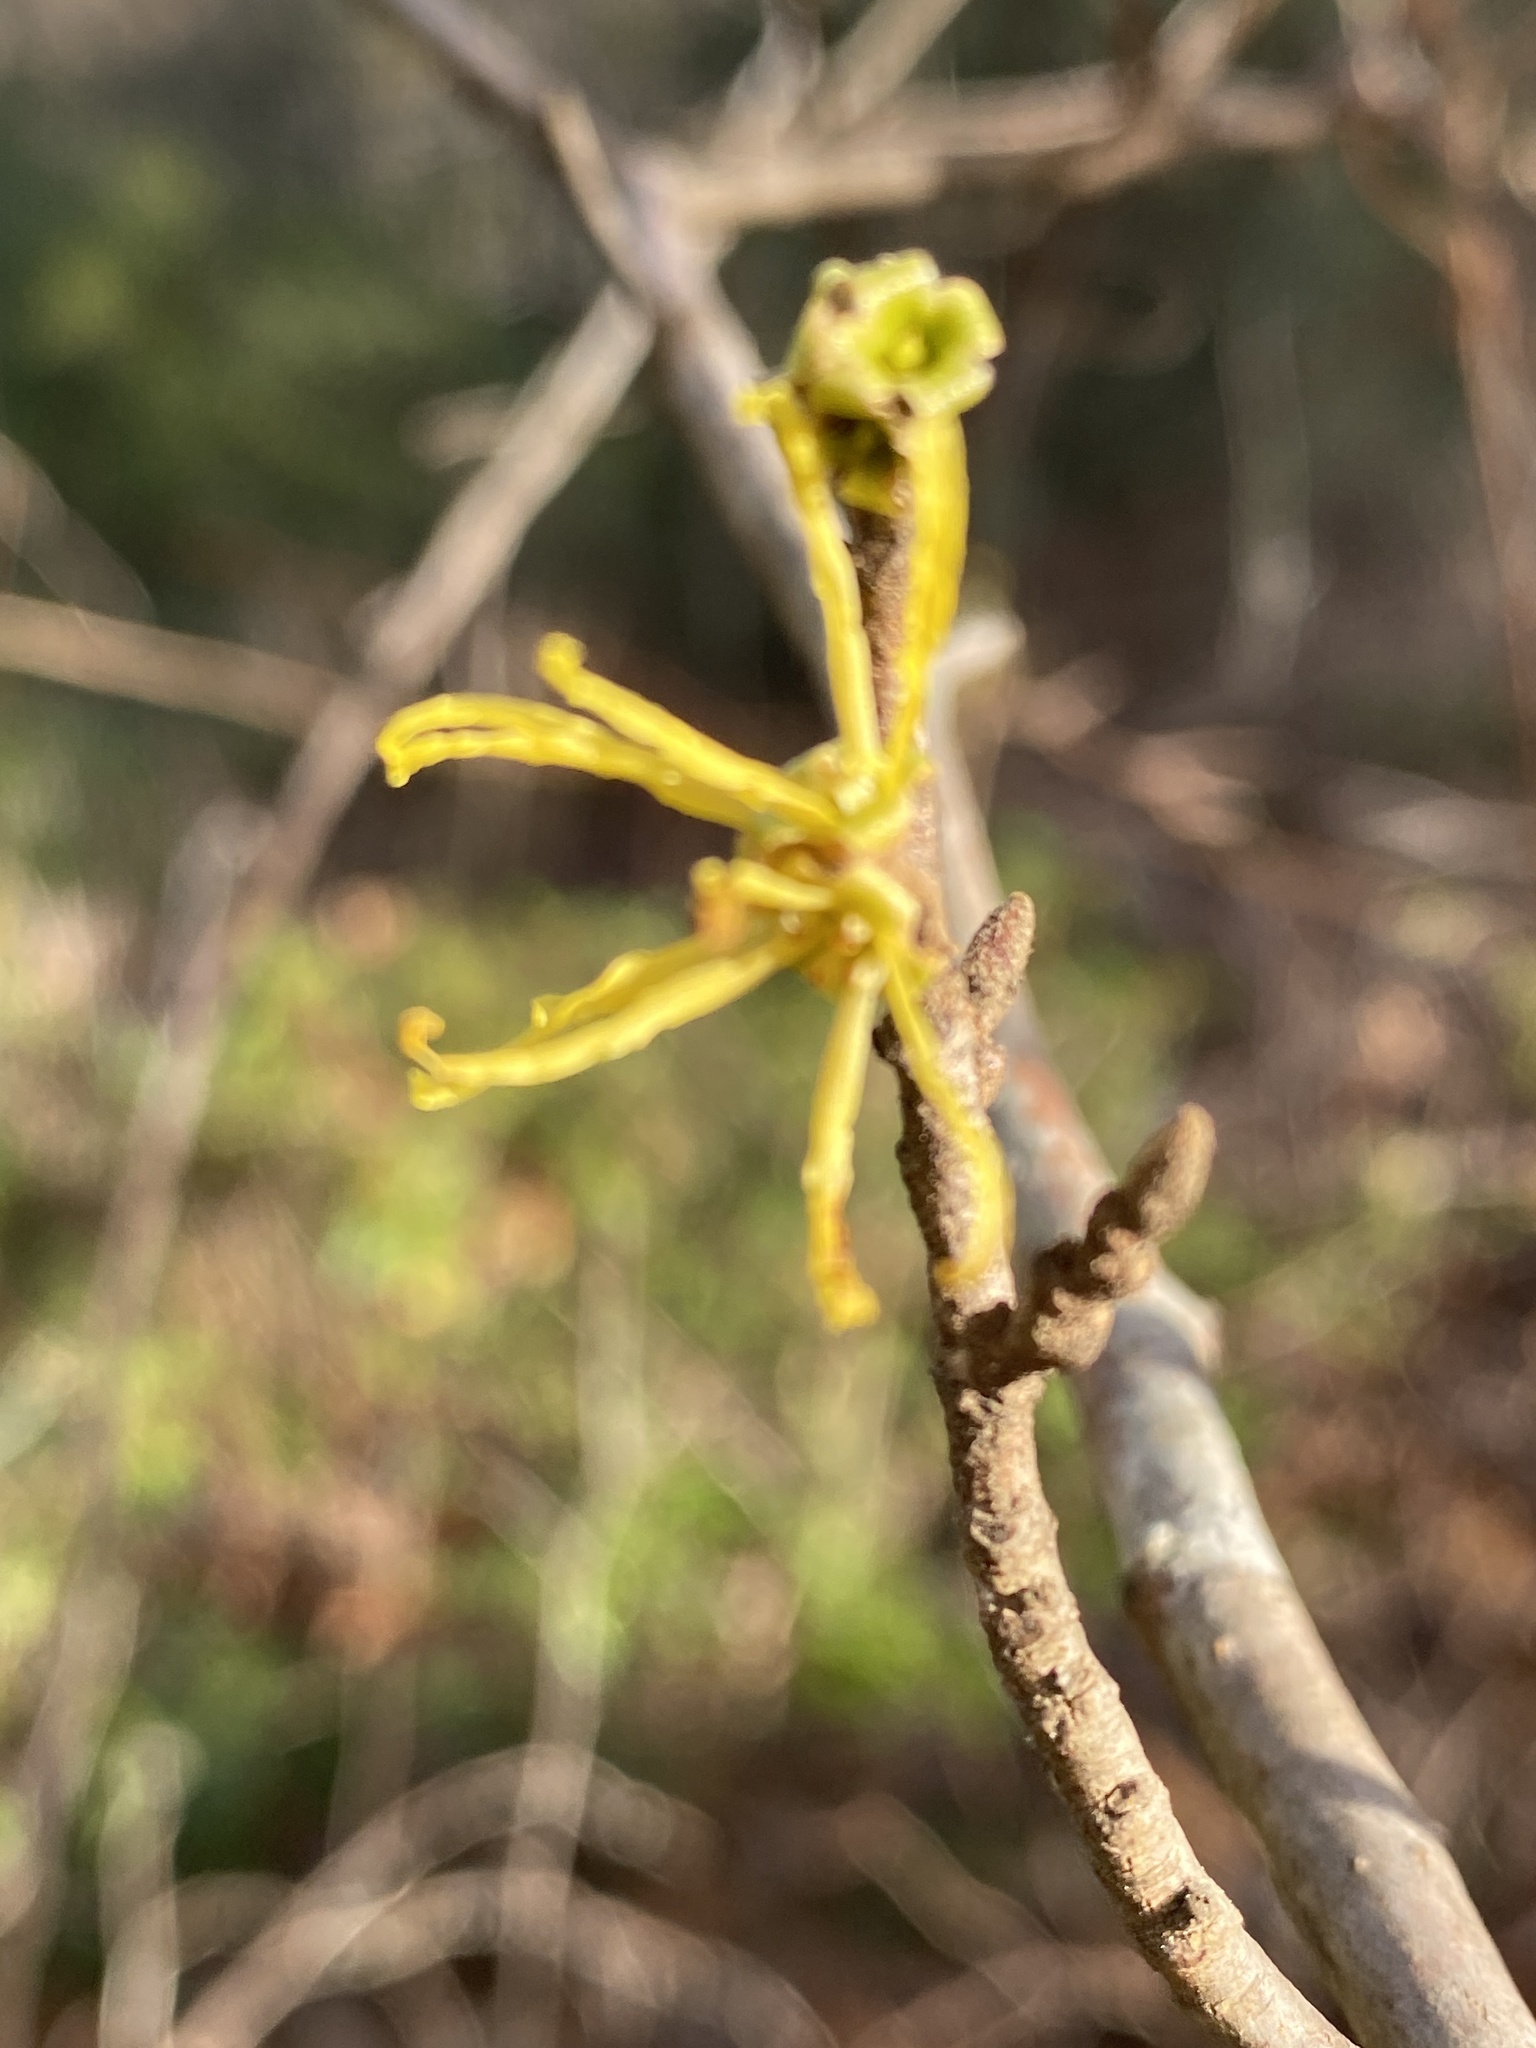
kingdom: Plantae
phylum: Tracheophyta
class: Magnoliopsida
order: Saxifragales
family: Hamamelidaceae
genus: Hamamelis
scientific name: Hamamelis virginiana
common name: Witch-hazel
